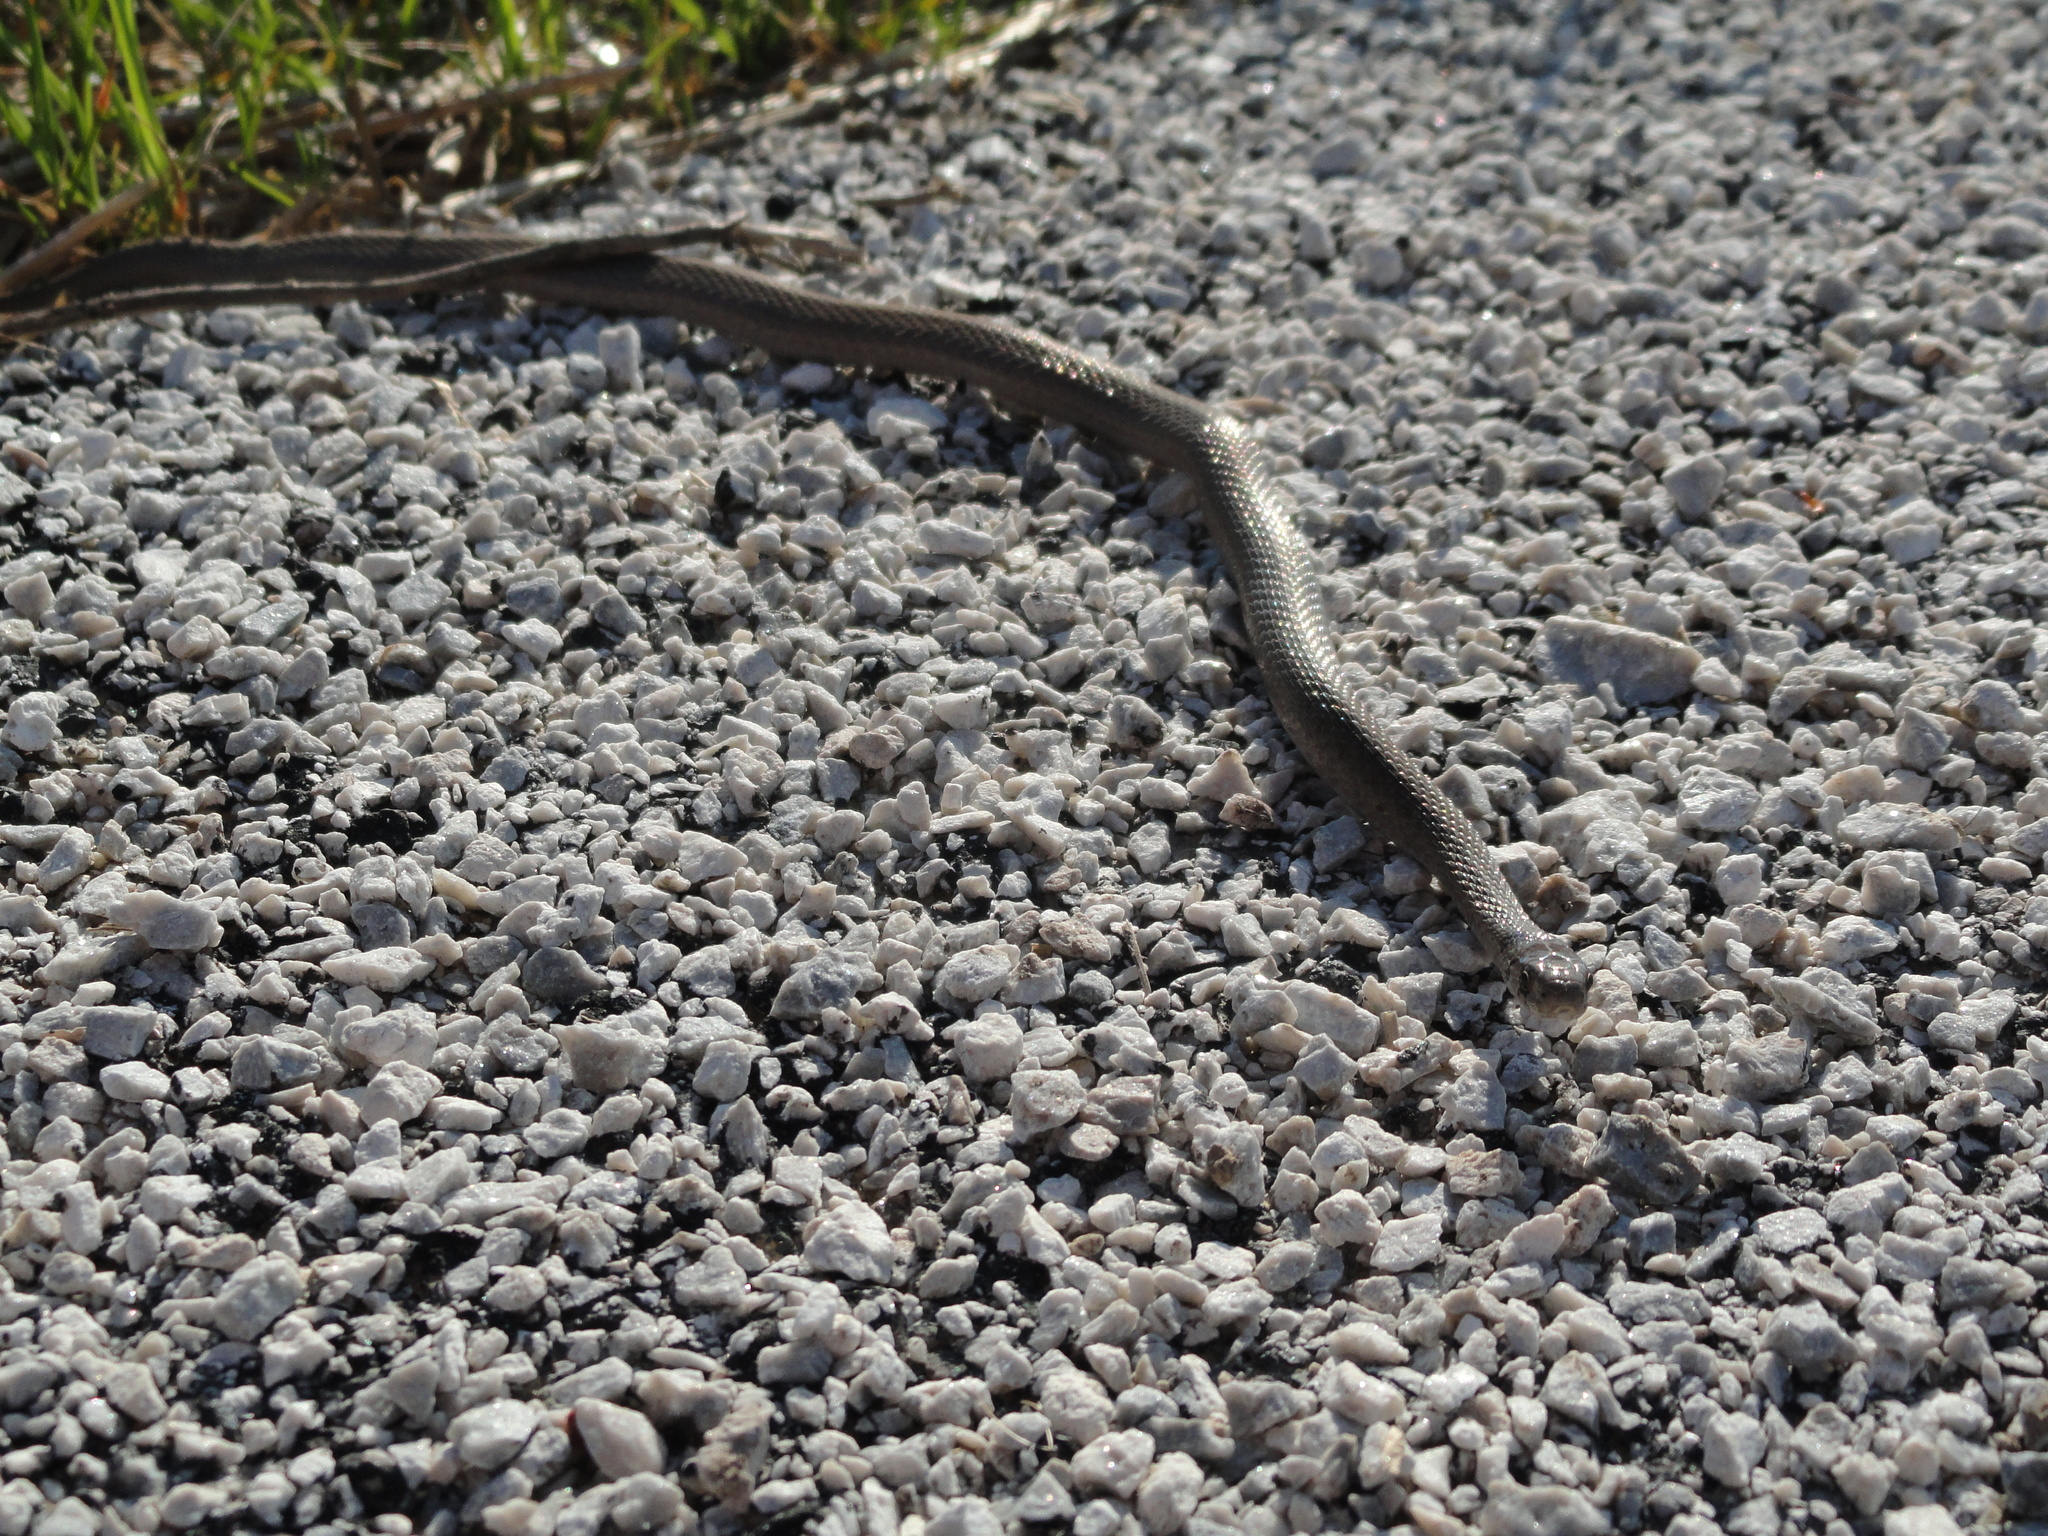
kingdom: Animalia
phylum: Chordata
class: Squamata
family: Colubridae
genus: Storeria
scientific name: Storeria dekayi
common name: (dekay’s) brown snake
